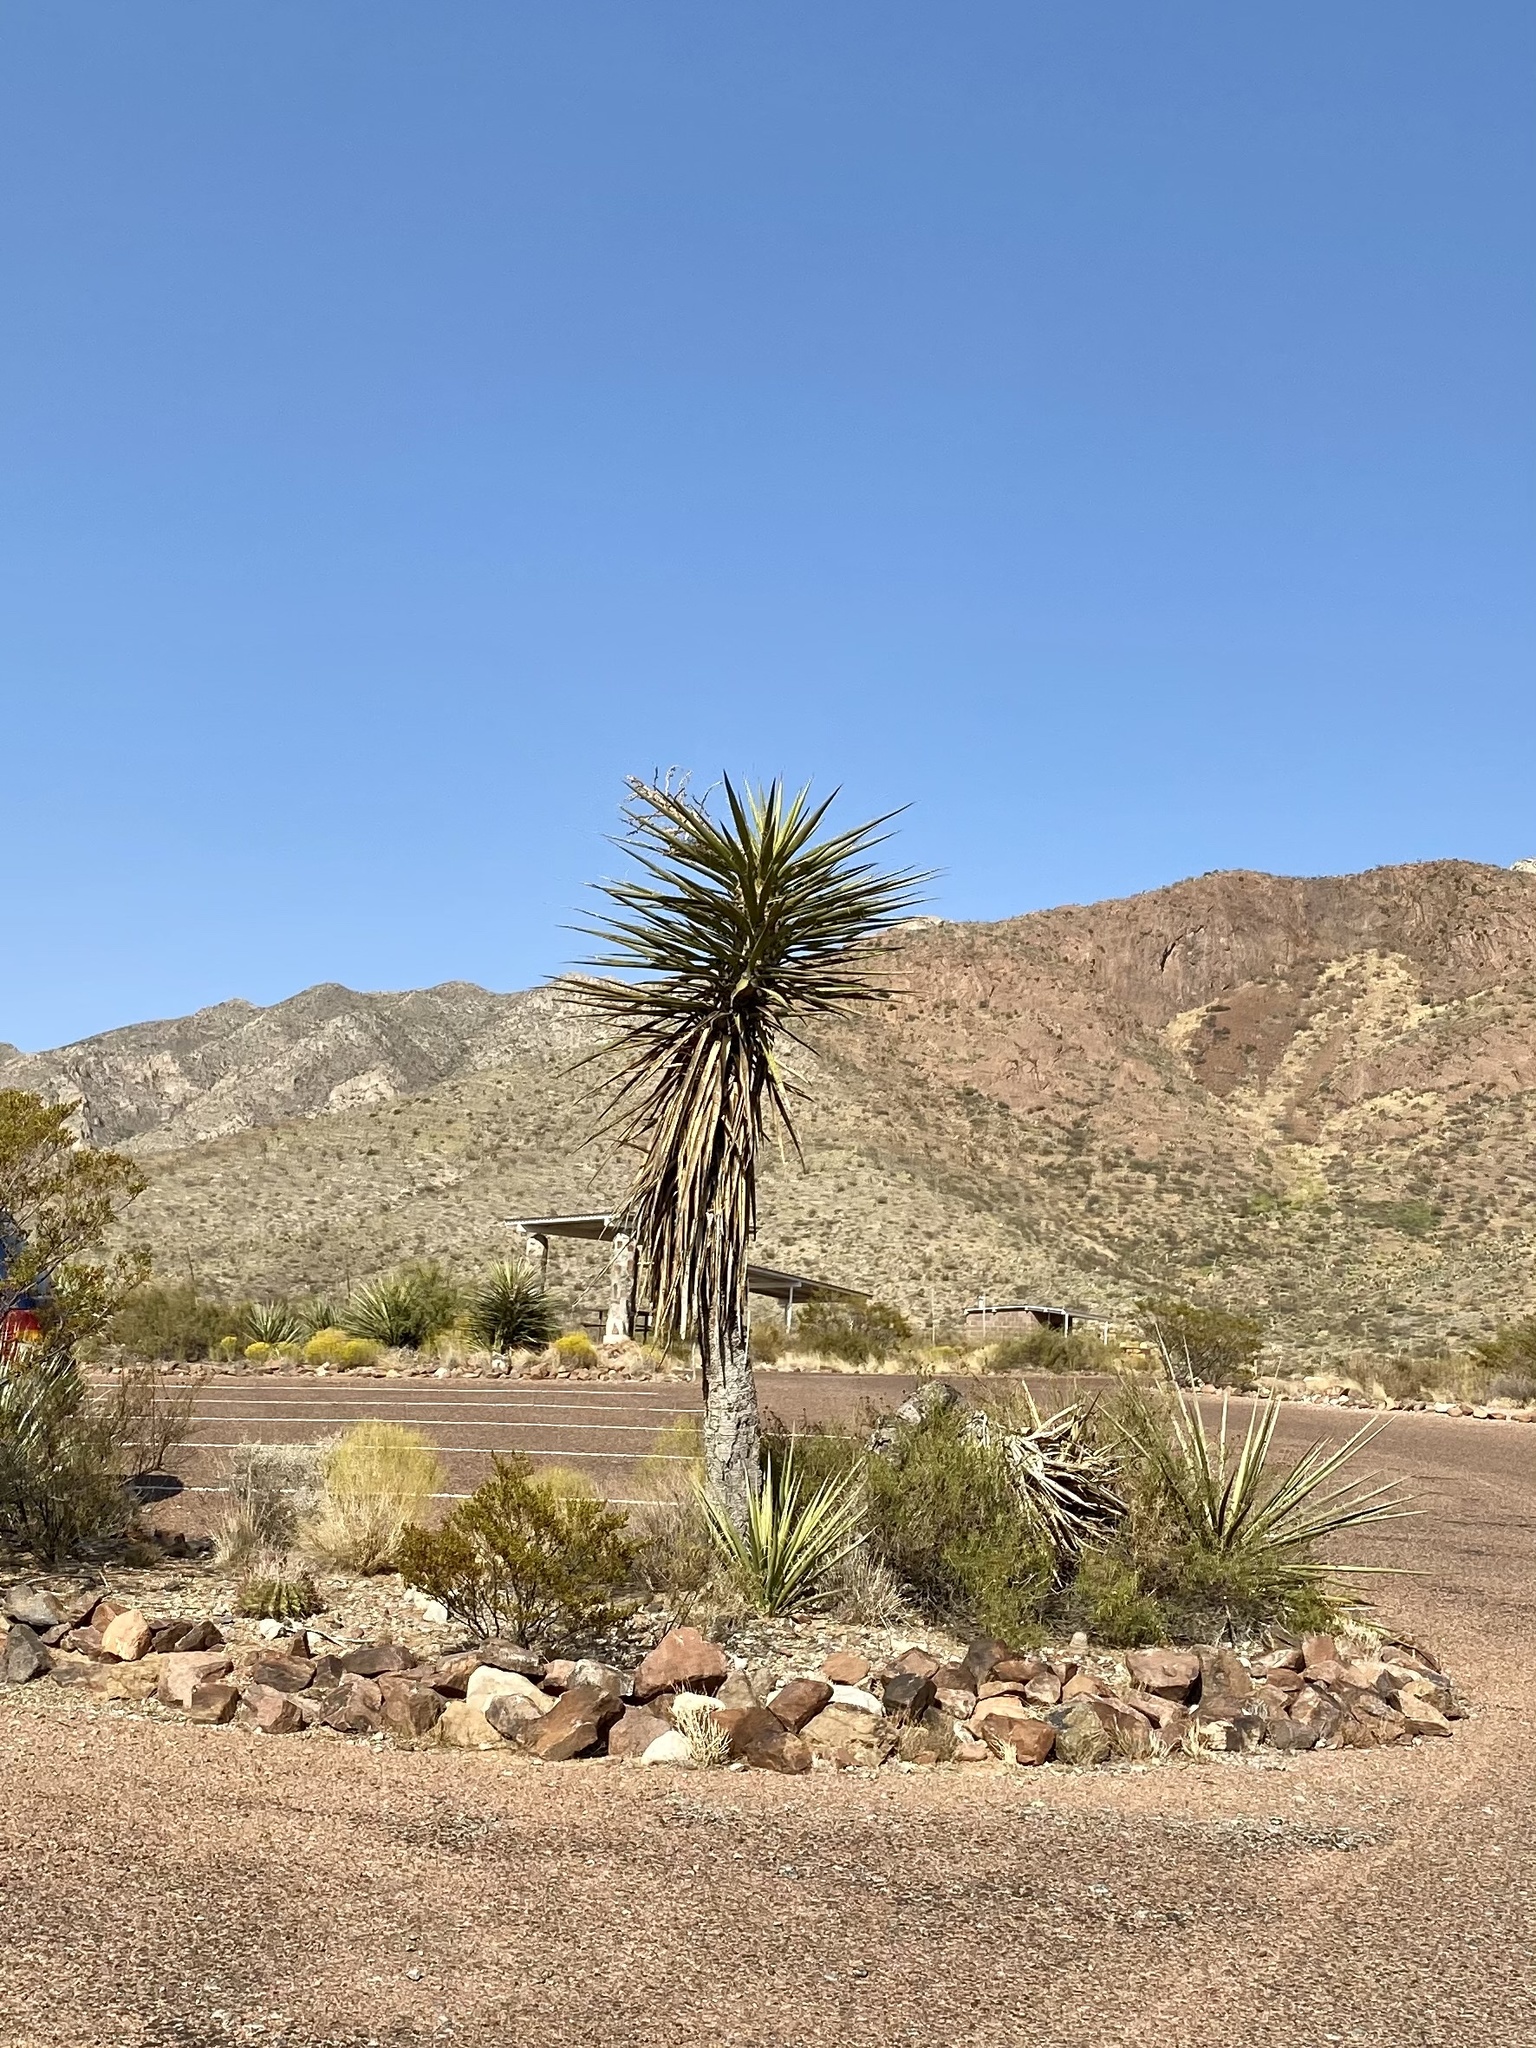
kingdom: Plantae
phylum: Tracheophyta
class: Liliopsida
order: Asparagales
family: Asparagaceae
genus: Yucca
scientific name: Yucca treculiana
